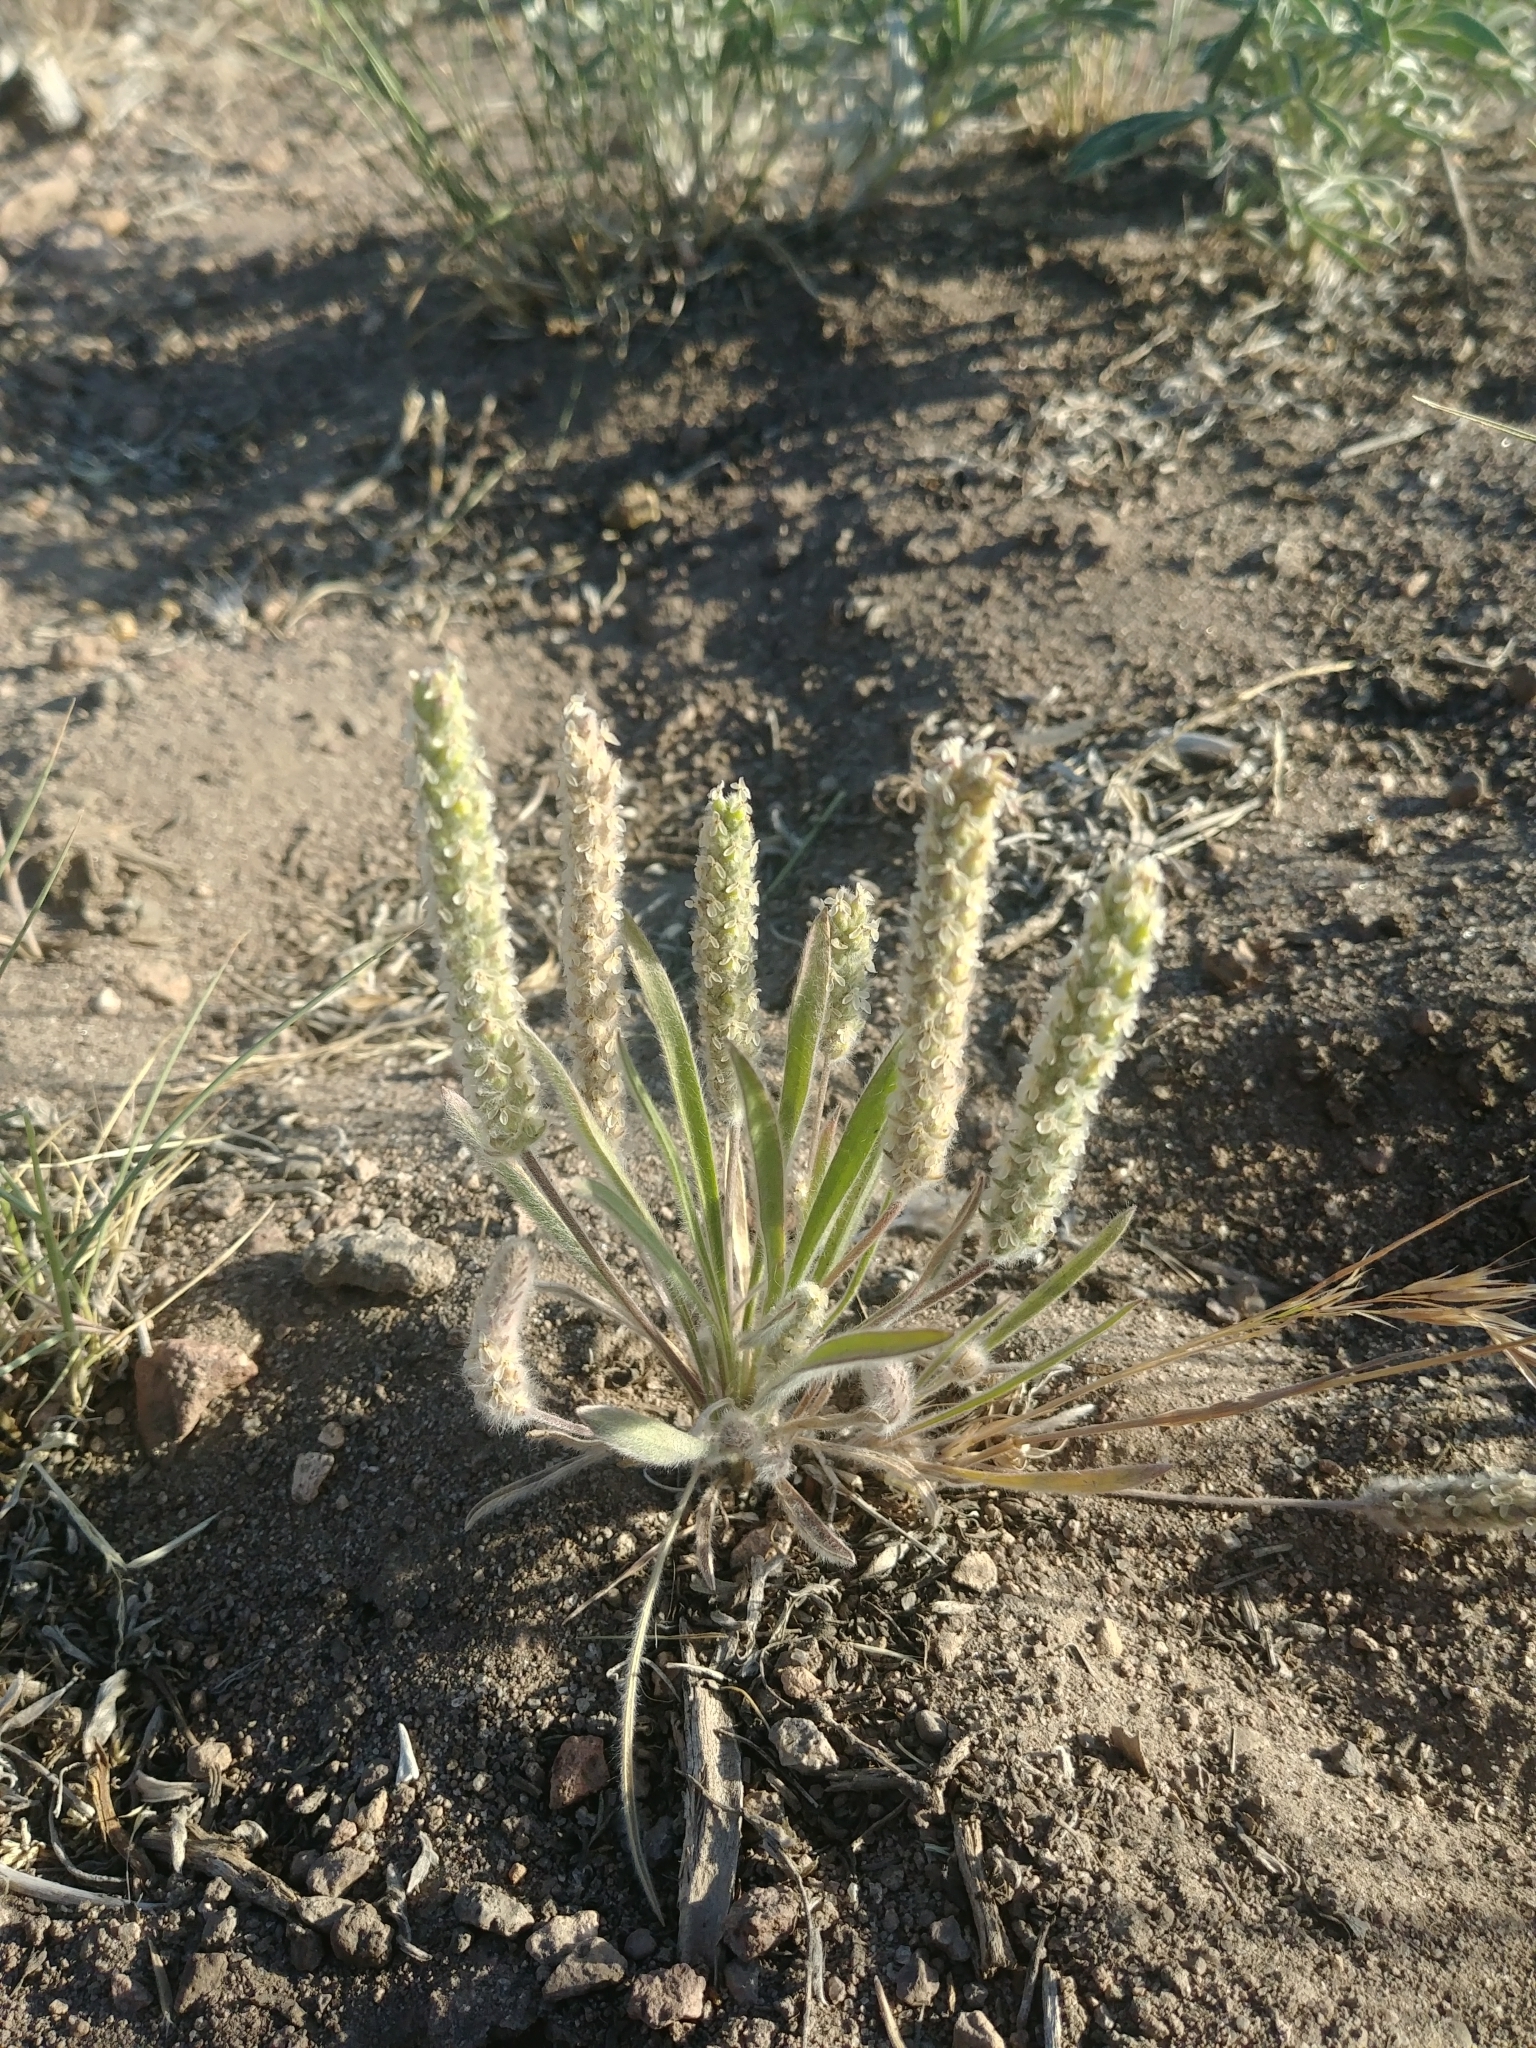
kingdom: Plantae
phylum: Tracheophyta
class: Magnoliopsida
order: Lamiales
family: Plantaginaceae
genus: Plantago
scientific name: Plantago patagonica
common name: Patagonia indian-wheat
